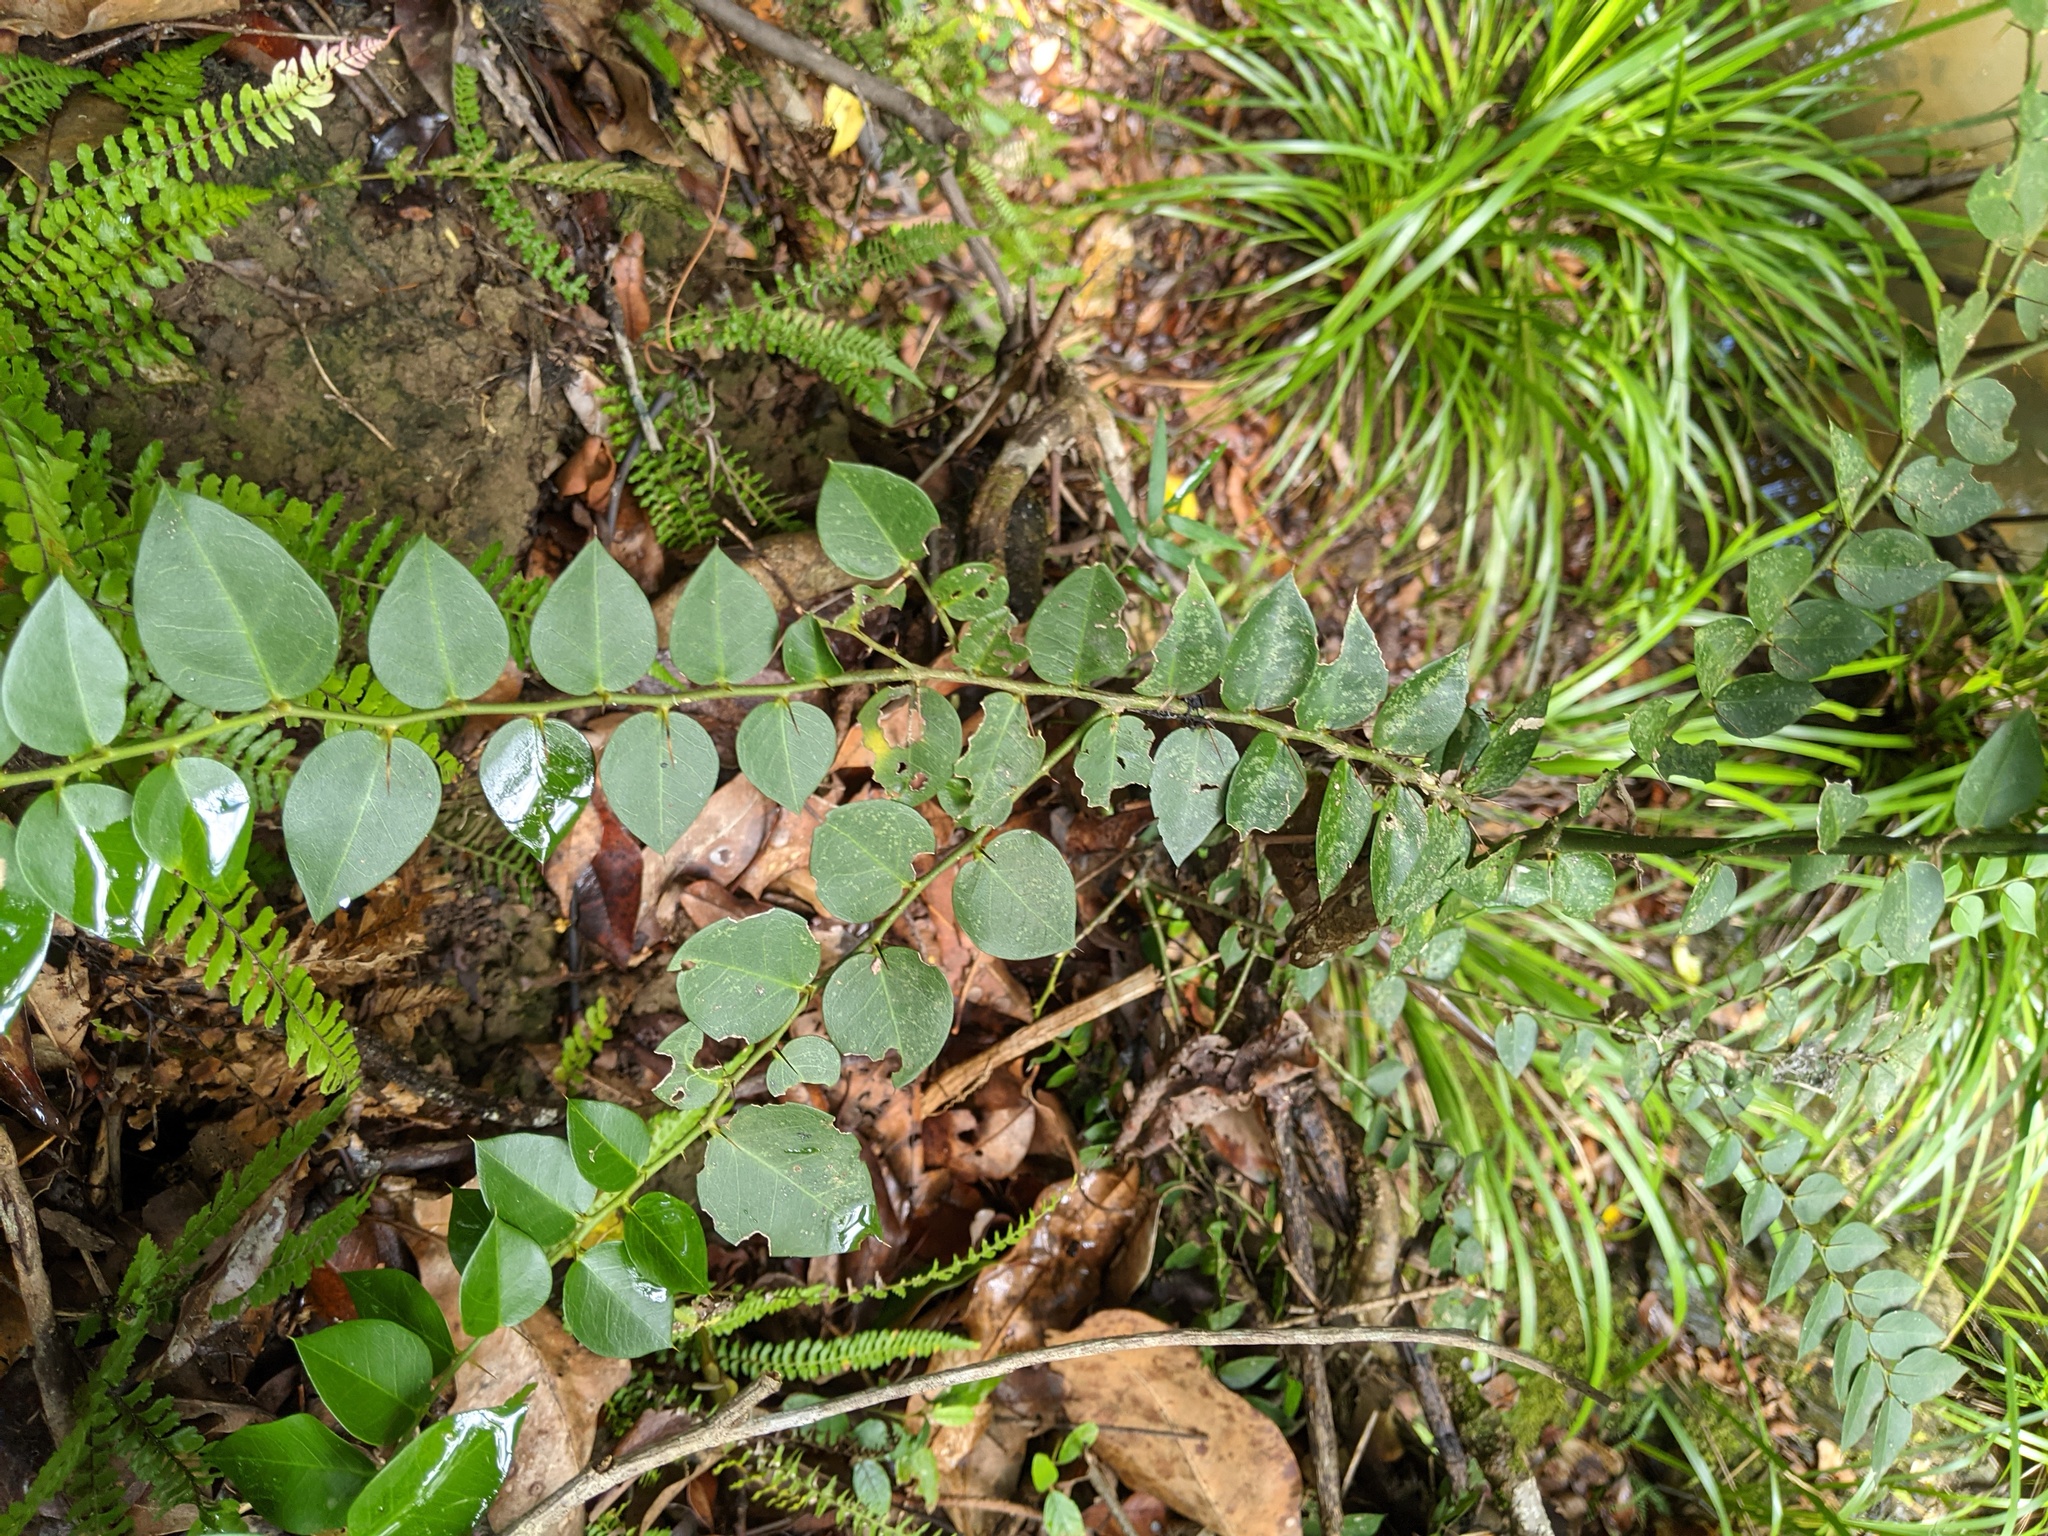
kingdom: Plantae
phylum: Tracheophyta
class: Magnoliopsida
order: Brassicales
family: Capparaceae
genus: Capparis
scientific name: Capparis arborea
